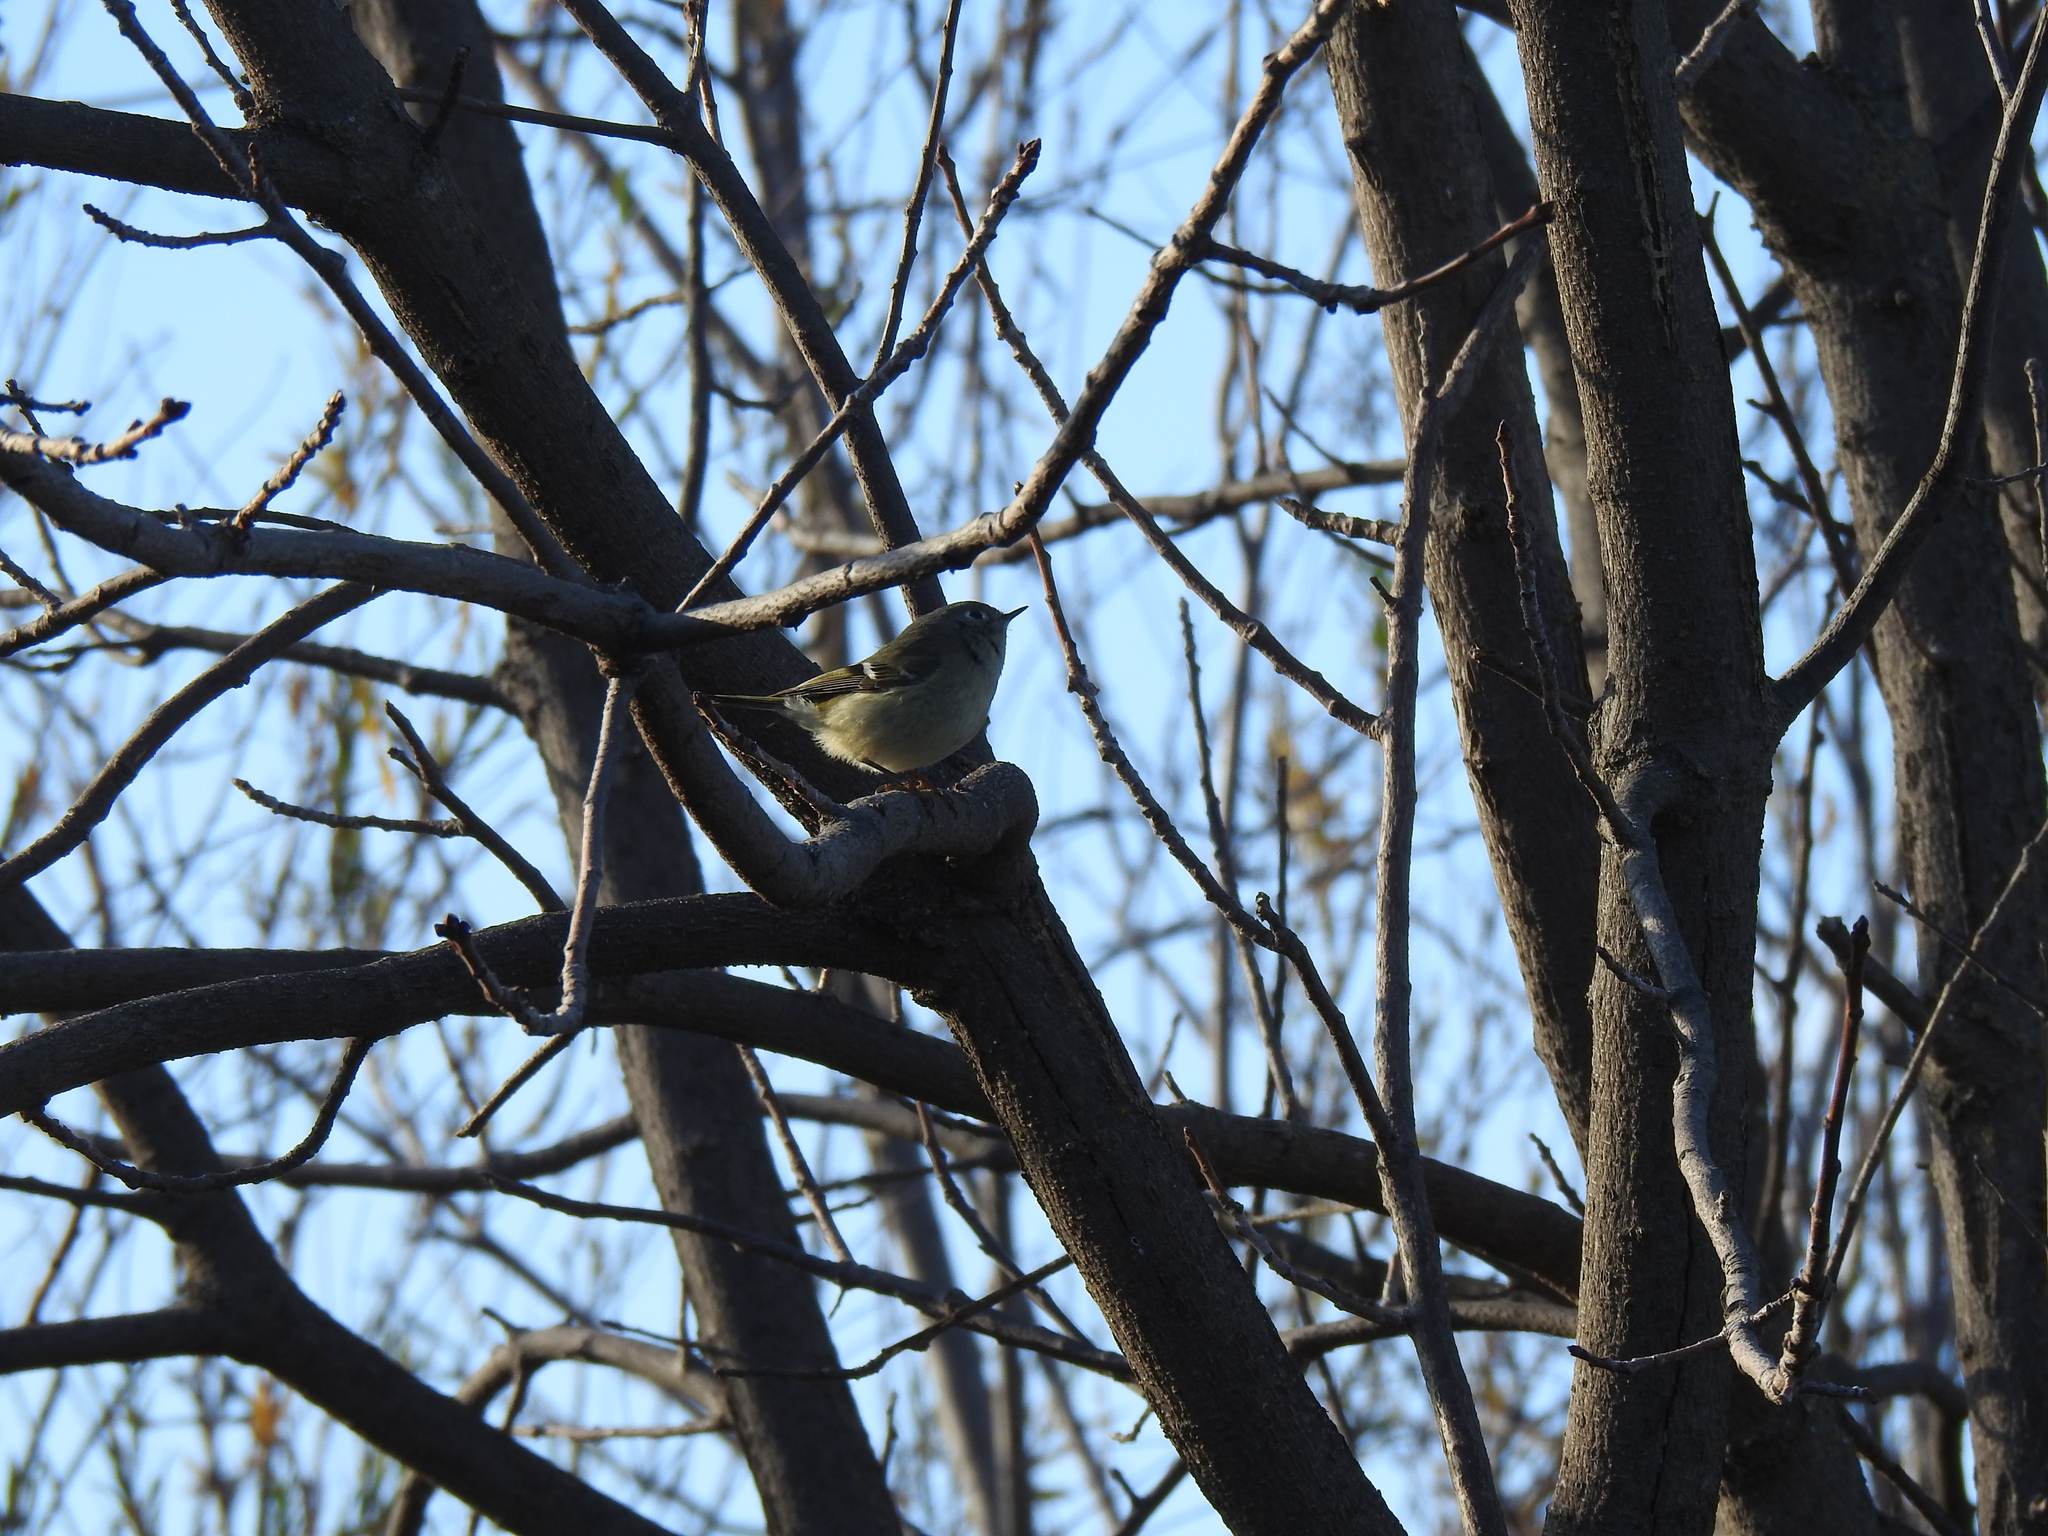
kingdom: Animalia
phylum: Chordata
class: Aves
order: Passeriformes
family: Regulidae
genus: Regulus
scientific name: Regulus calendula
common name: Ruby-crowned kinglet
